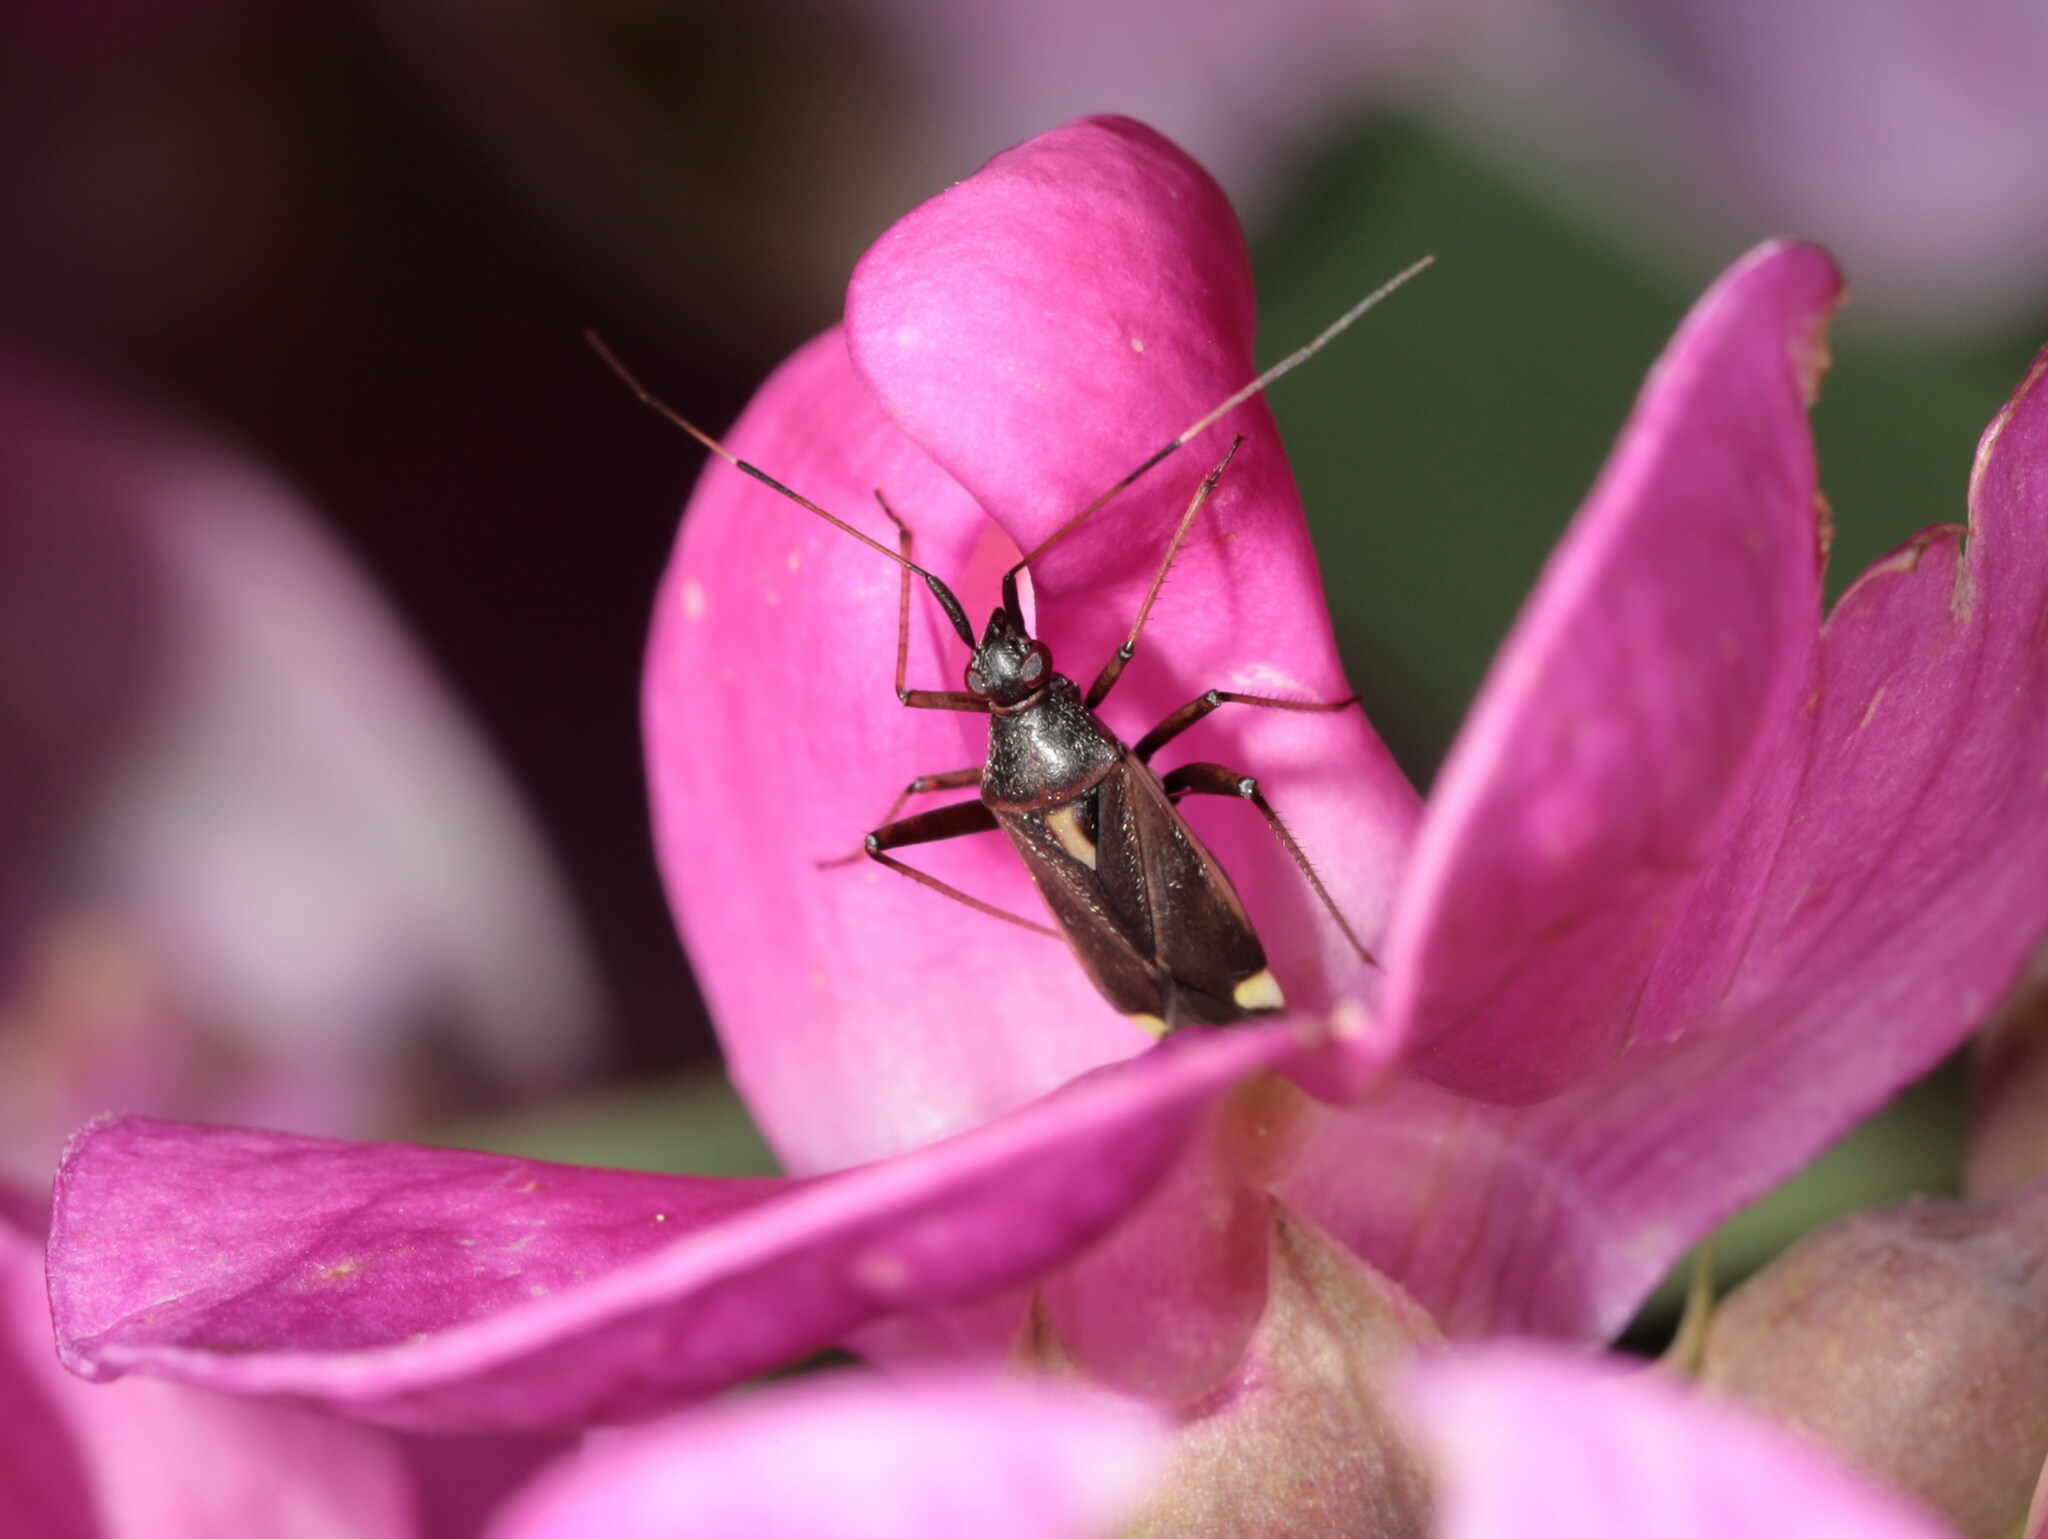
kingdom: Animalia
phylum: Arthropoda
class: Insecta
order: Hemiptera
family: Miridae
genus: Closterotomus
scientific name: Closterotomus ventralis
